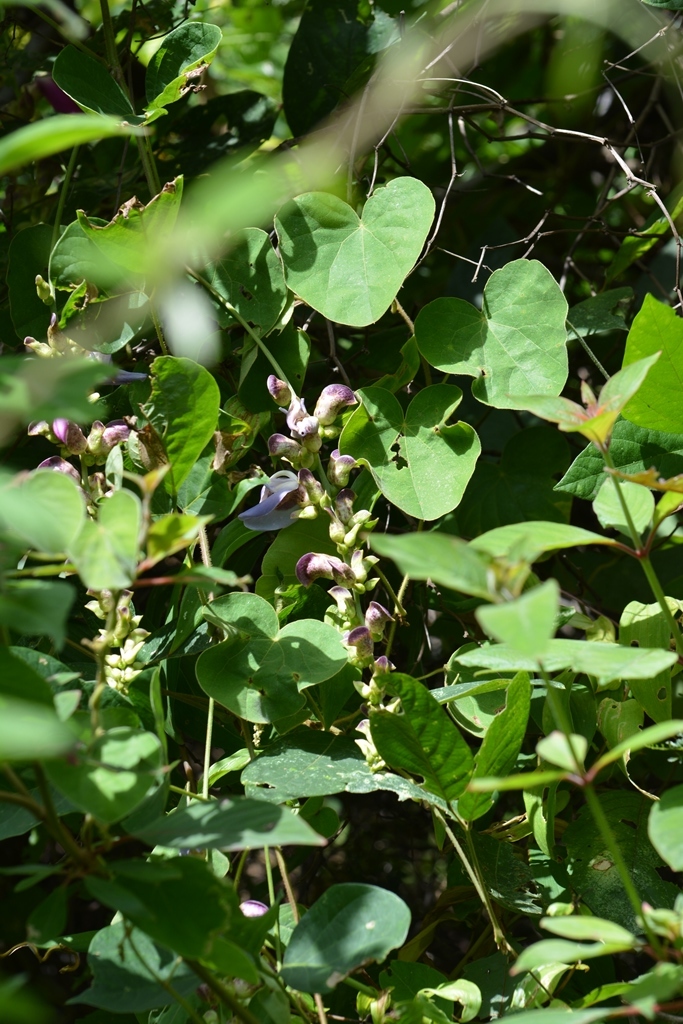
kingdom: Plantae
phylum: Tracheophyta
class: Magnoliopsida
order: Fabales
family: Fabaceae
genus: Canavalia
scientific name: Canavalia oxyphylla
